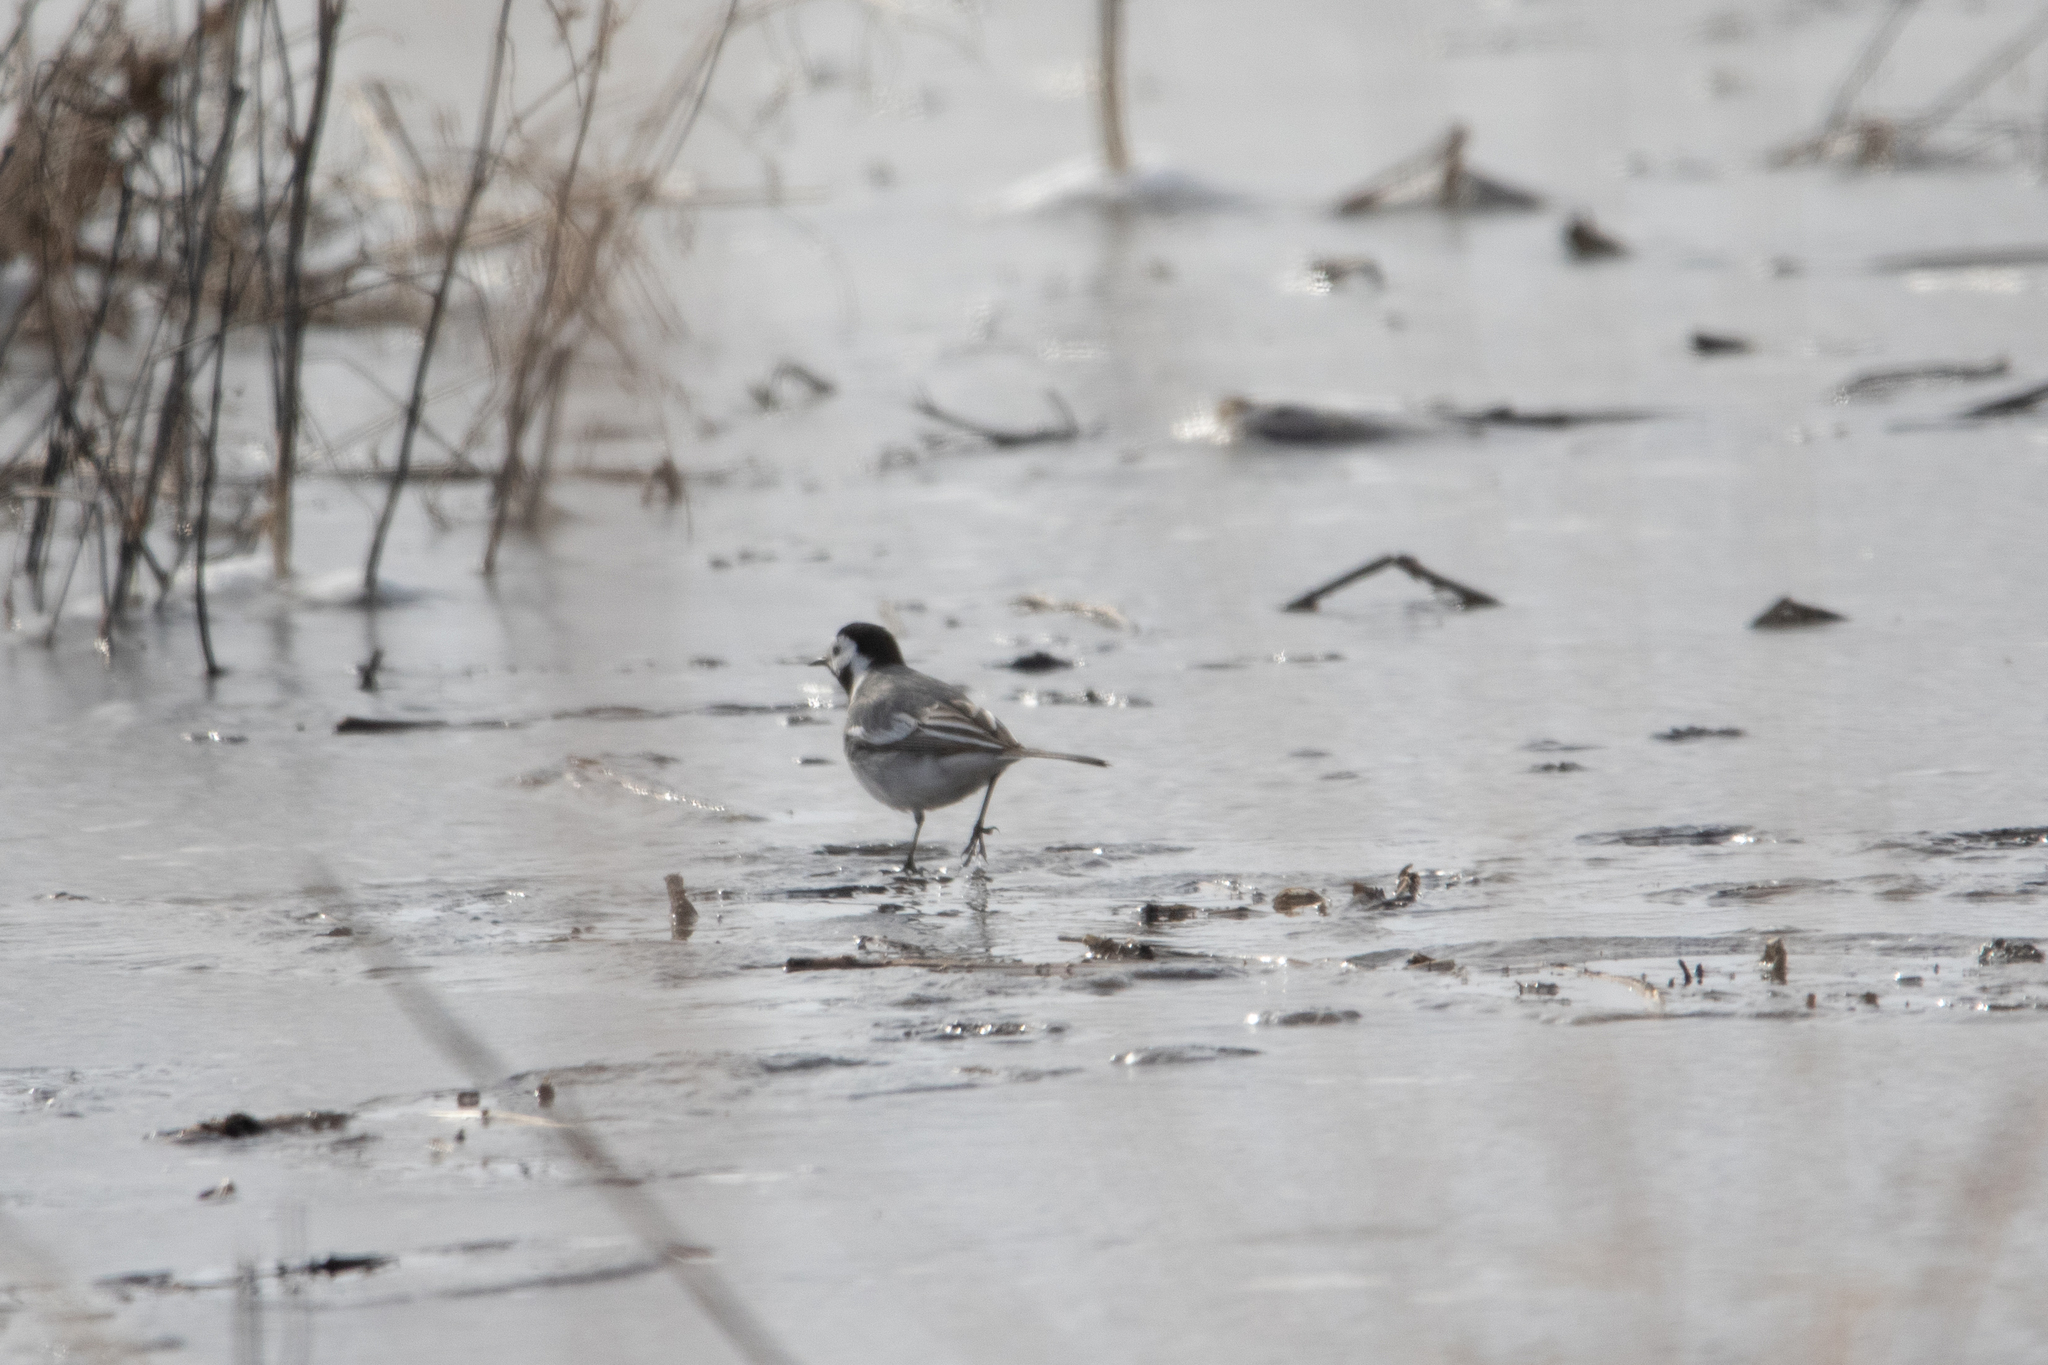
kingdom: Animalia
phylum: Chordata
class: Aves
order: Passeriformes
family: Motacillidae
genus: Motacilla
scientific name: Motacilla alba
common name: White wagtail
